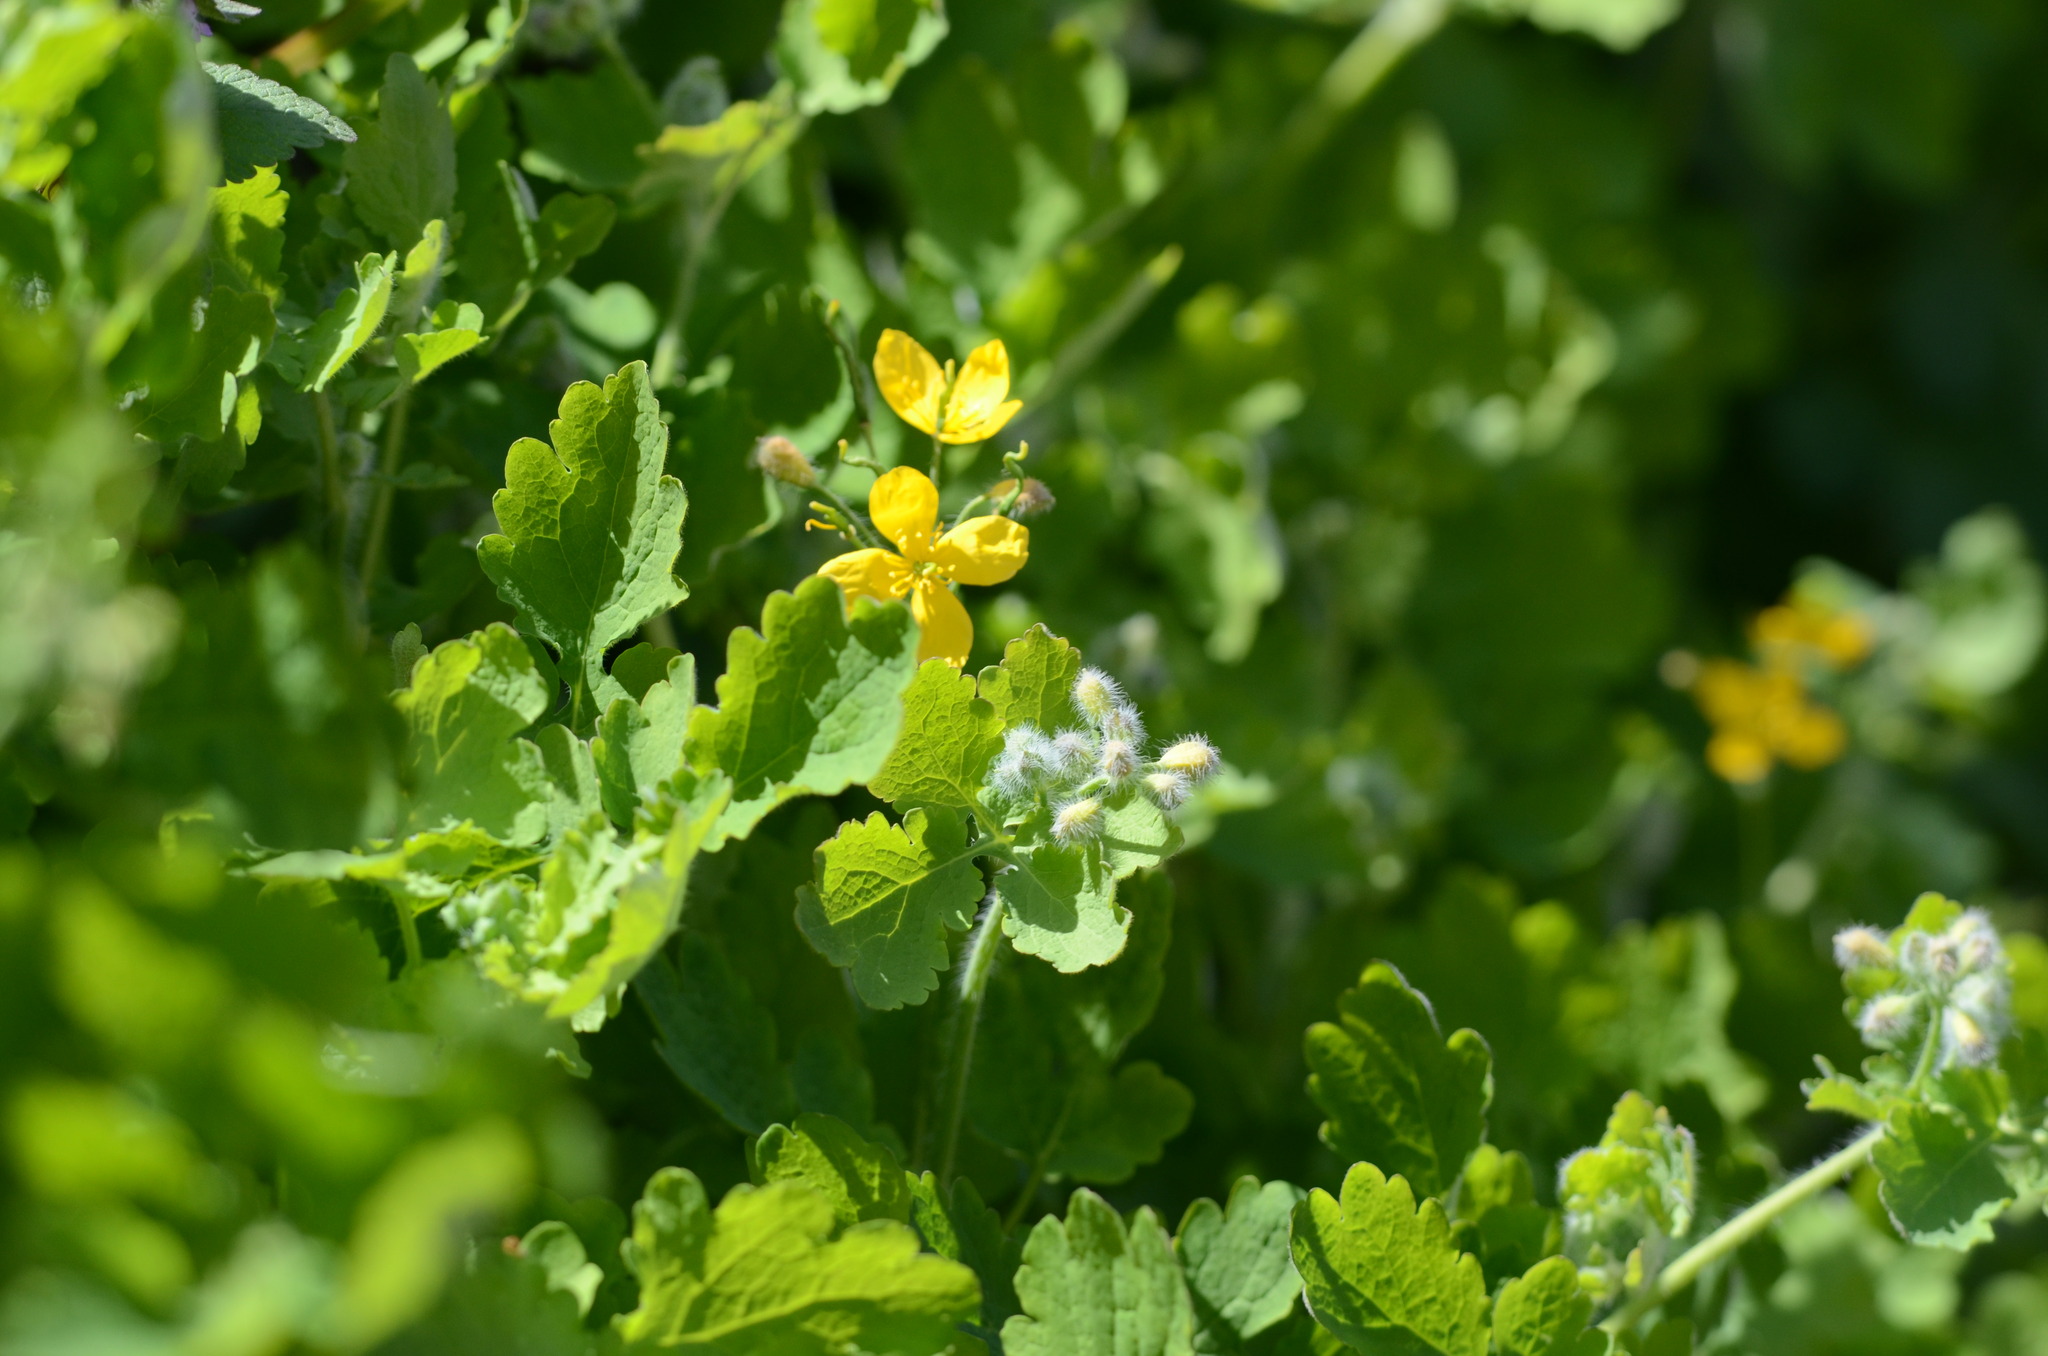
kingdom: Plantae
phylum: Tracheophyta
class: Magnoliopsida
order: Ranunculales
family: Papaveraceae
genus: Chelidonium
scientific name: Chelidonium majus
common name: Greater celandine
